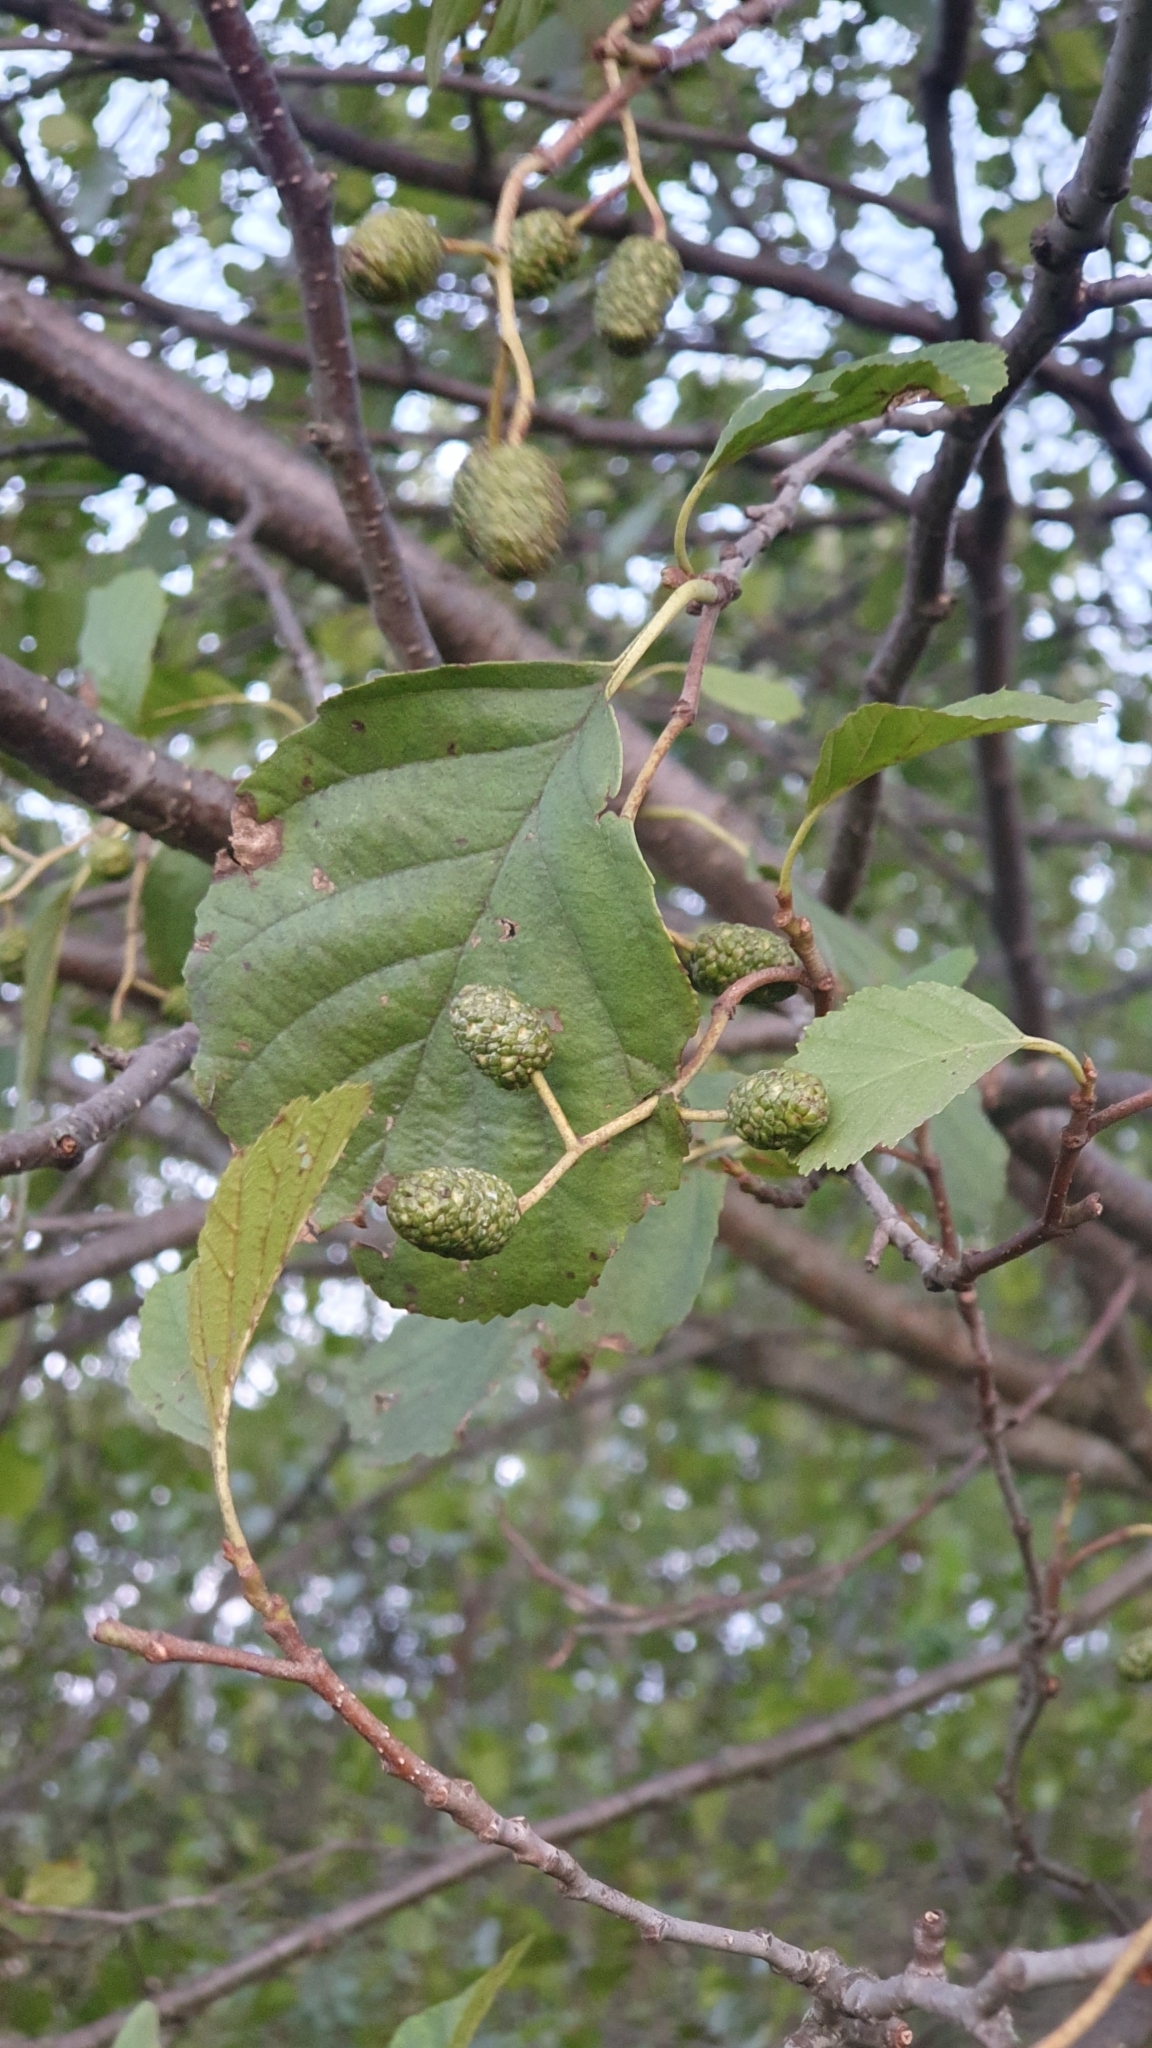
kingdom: Plantae
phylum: Tracheophyta
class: Magnoliopsida
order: Fagales
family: Betulaceae
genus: Alnus
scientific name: Alnus glutinosa
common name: Black alder
